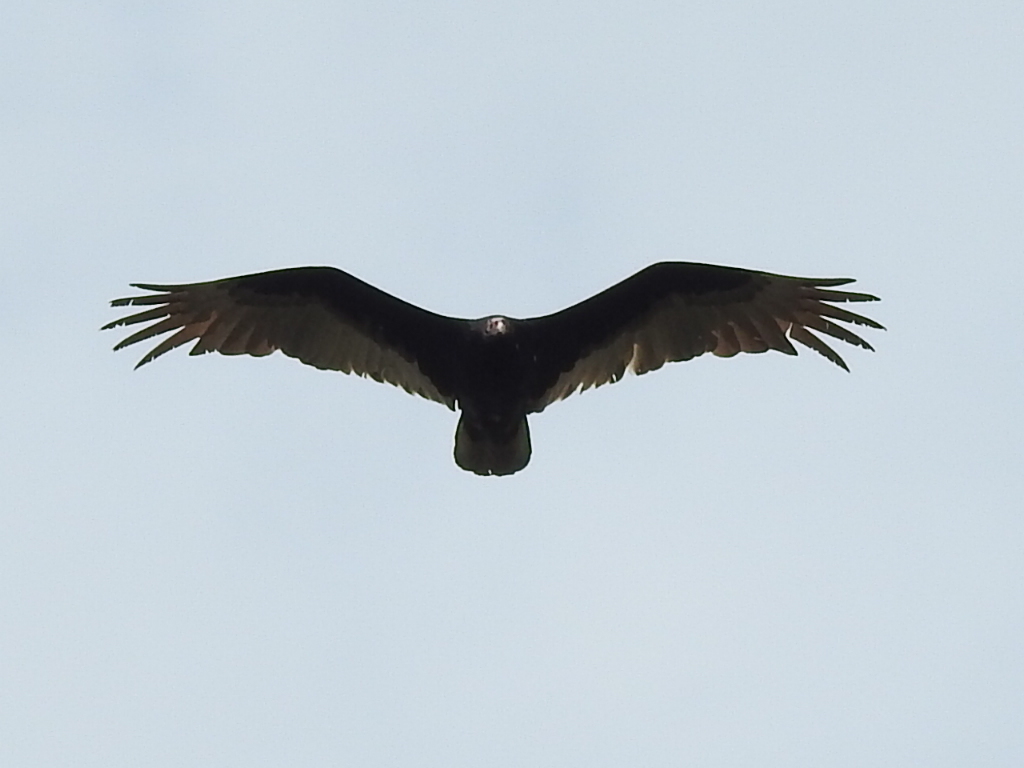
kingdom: Animalia
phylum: Chordata
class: Aves
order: Accipitriformes
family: Cathartidae
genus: Cathartes
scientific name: Cathartes aura
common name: Turkey vulture
